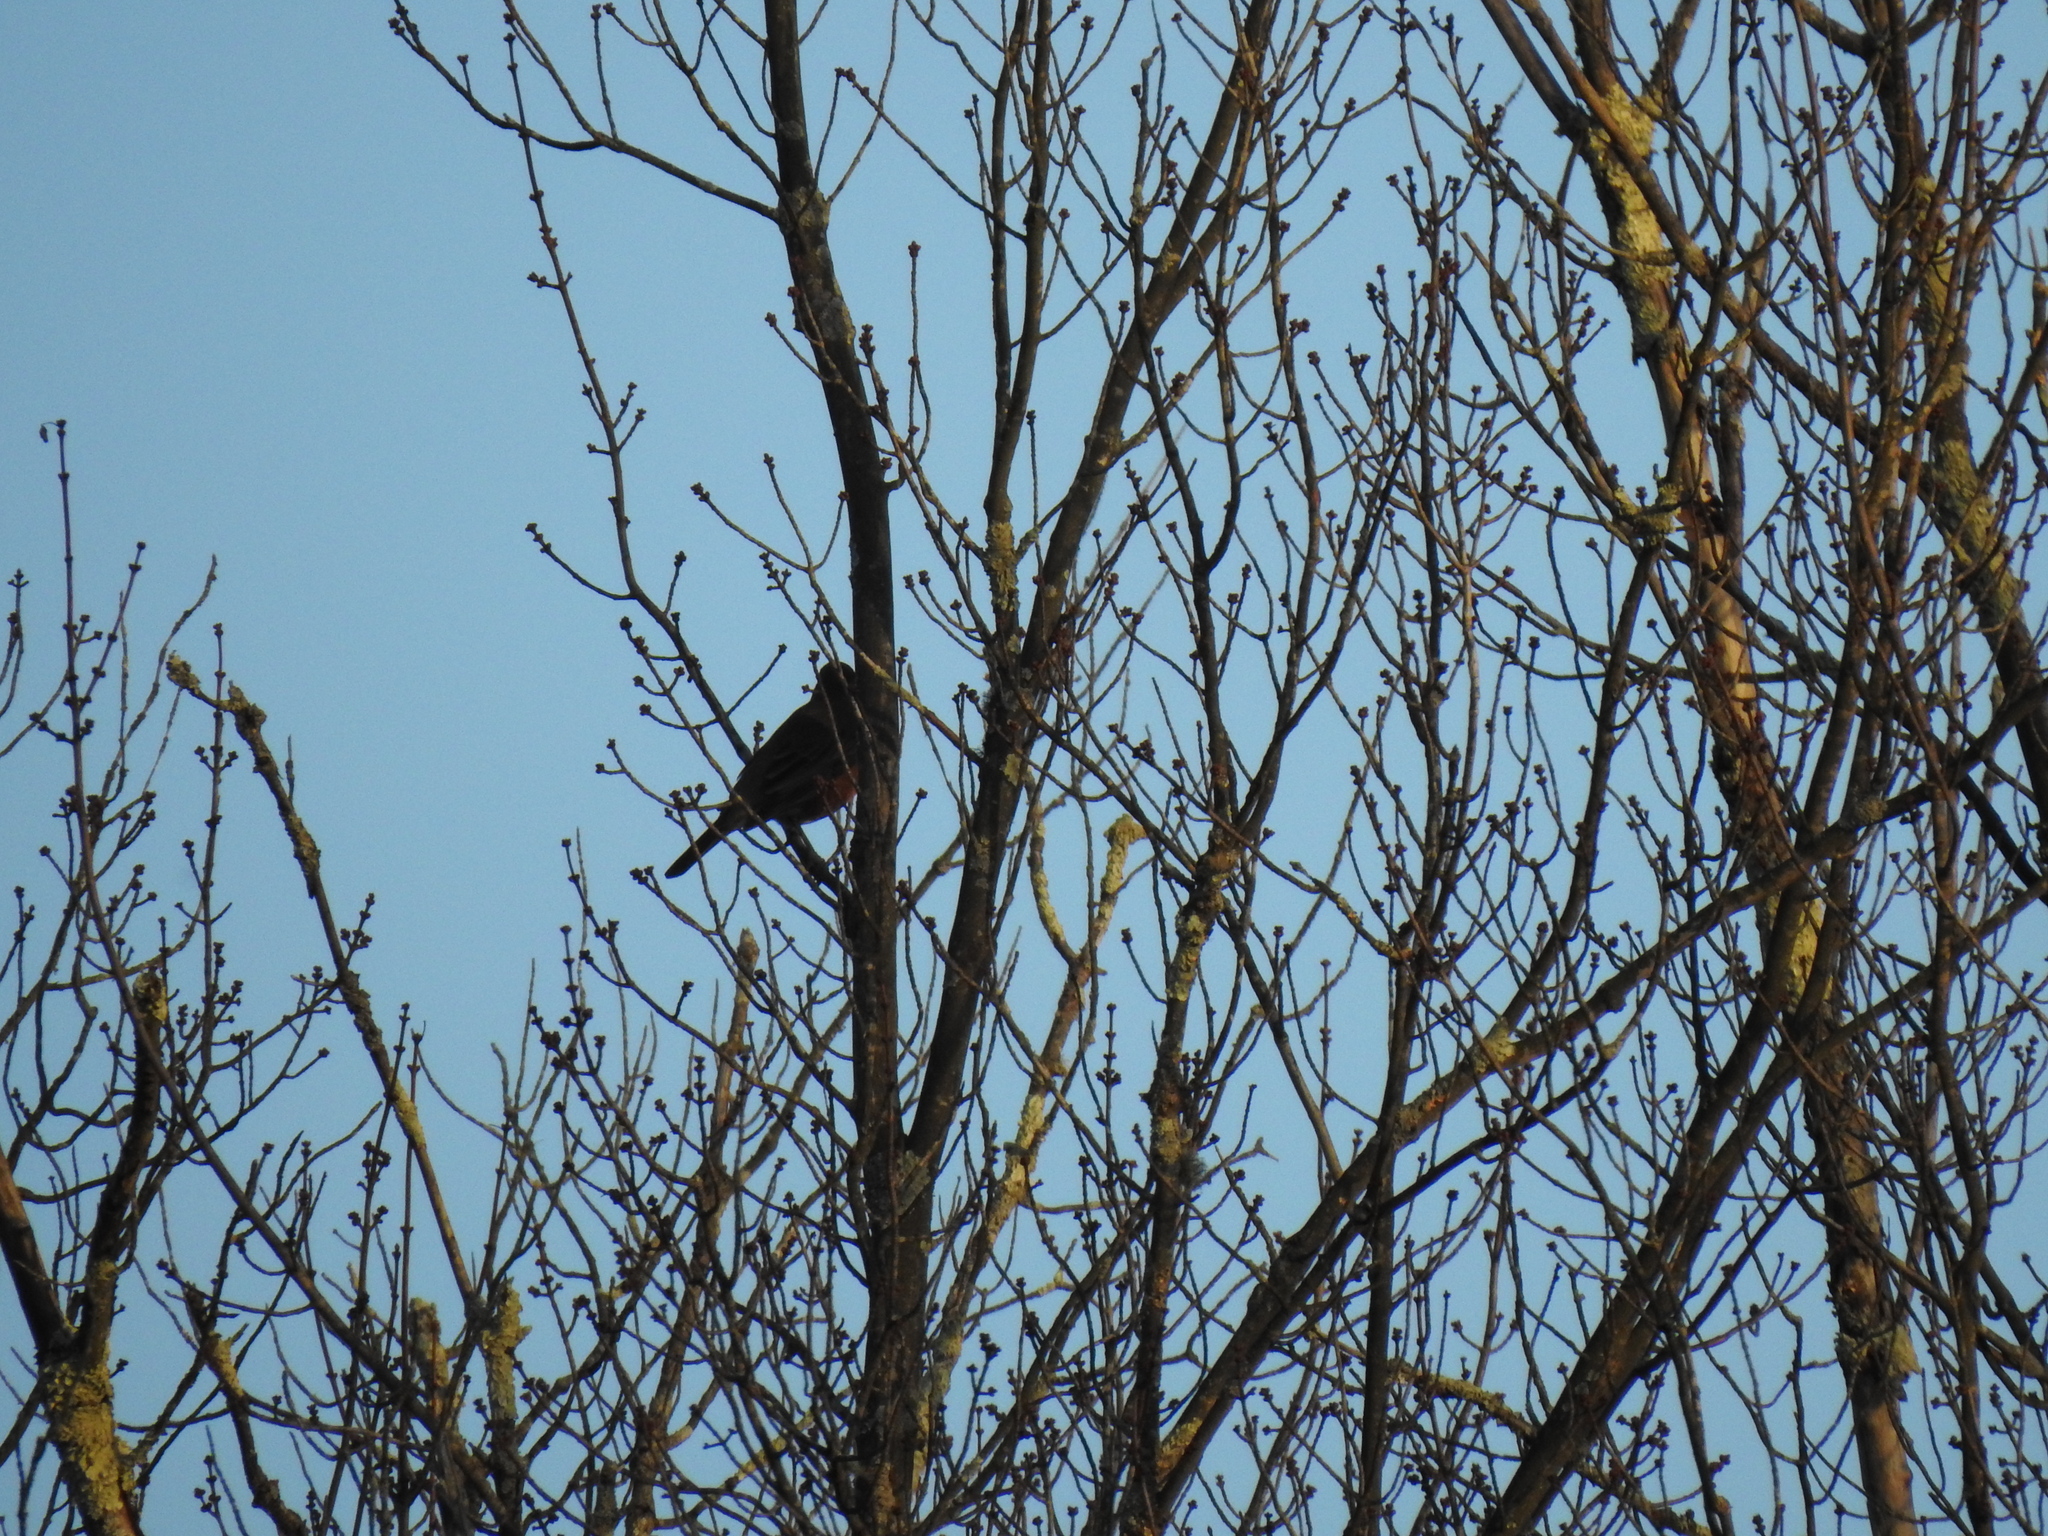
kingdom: Animalia
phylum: Chordata
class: Aves
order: Passeriformes
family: Turdidae
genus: Turdus
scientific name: Turdus migratorius
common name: American robin
